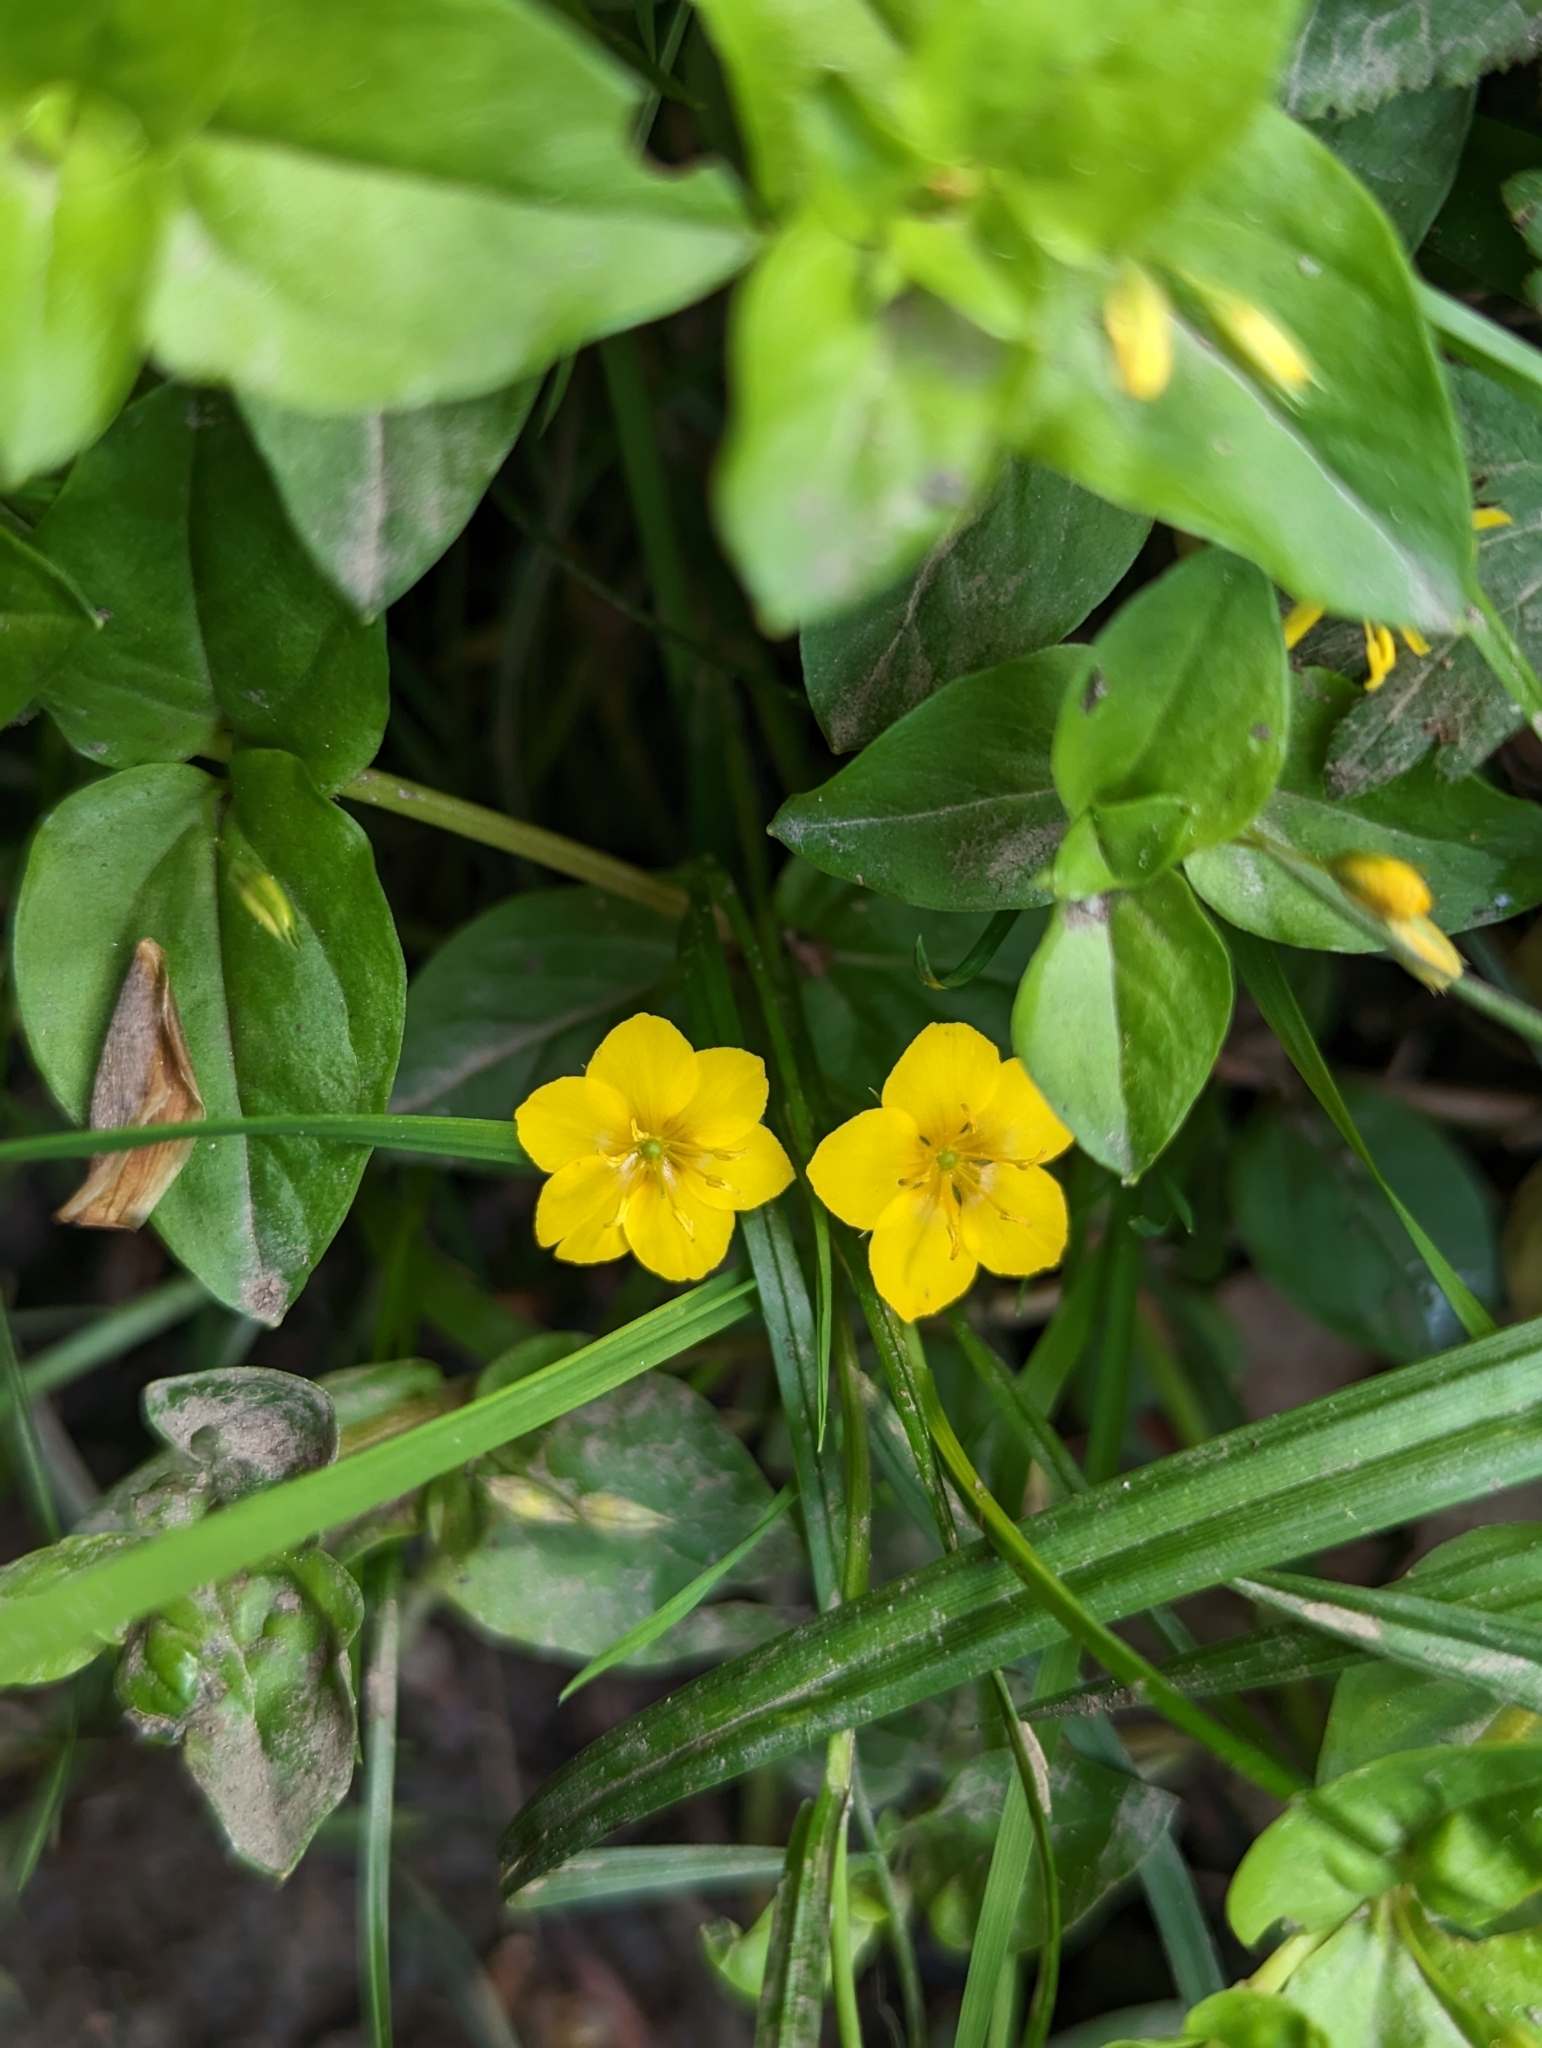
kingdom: Plantae
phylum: Tracheophyta
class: Magnoliopsida
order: Ericales
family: Primulaceae
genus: Lysimachia
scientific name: Lysimachia nemorum
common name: Yellow pimpernel
